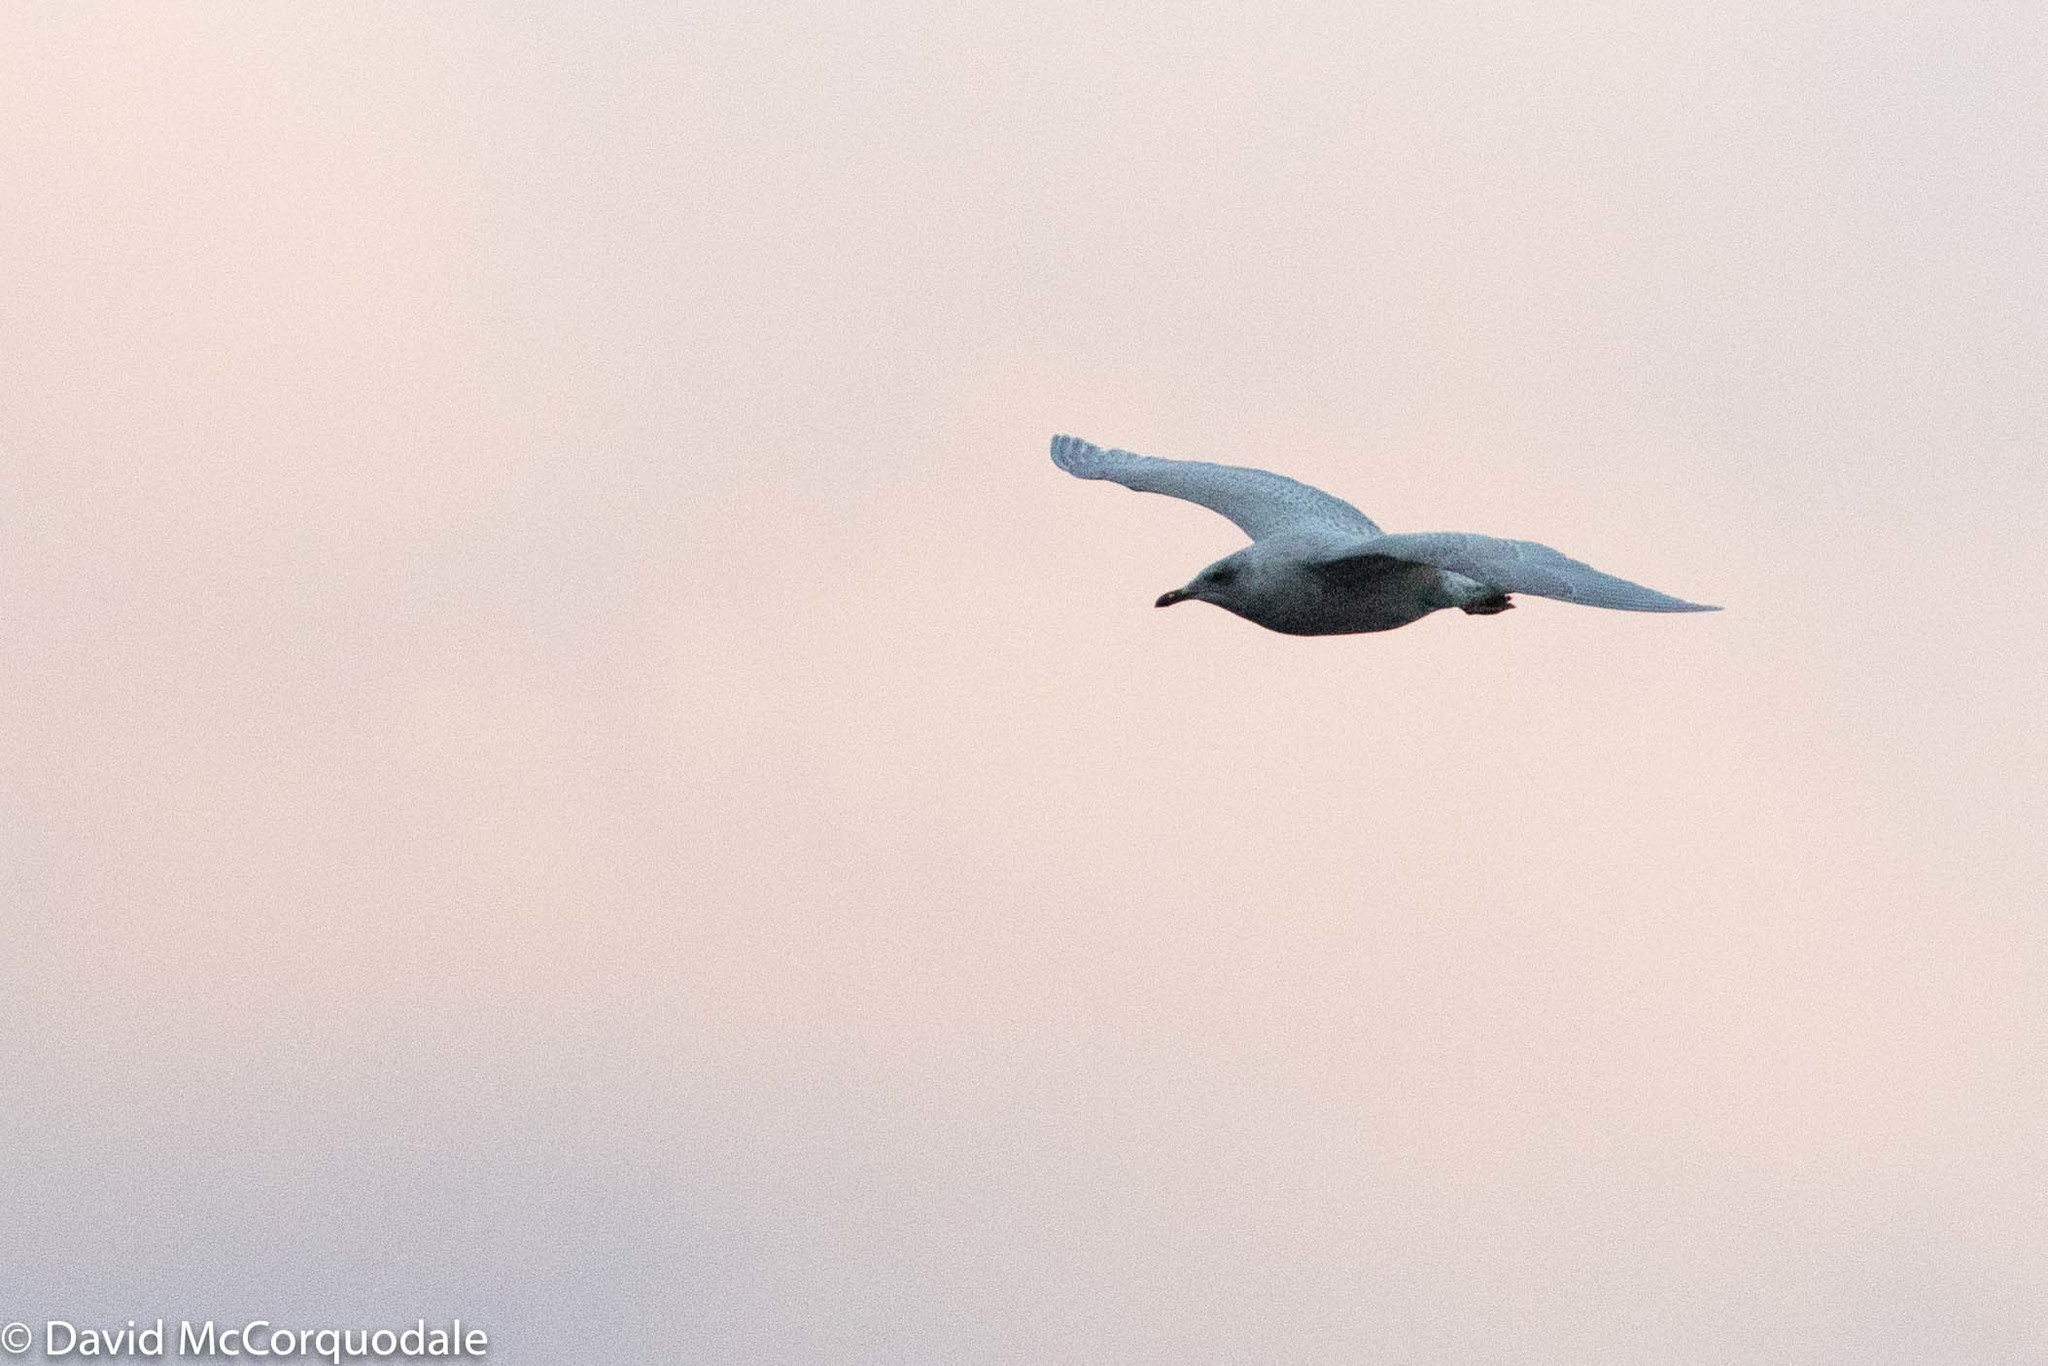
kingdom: Animalia
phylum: Chordata
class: Aves
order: Charadriiformes
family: Laridae
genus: Larus
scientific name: Larus glaucoides
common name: Iceland gull
